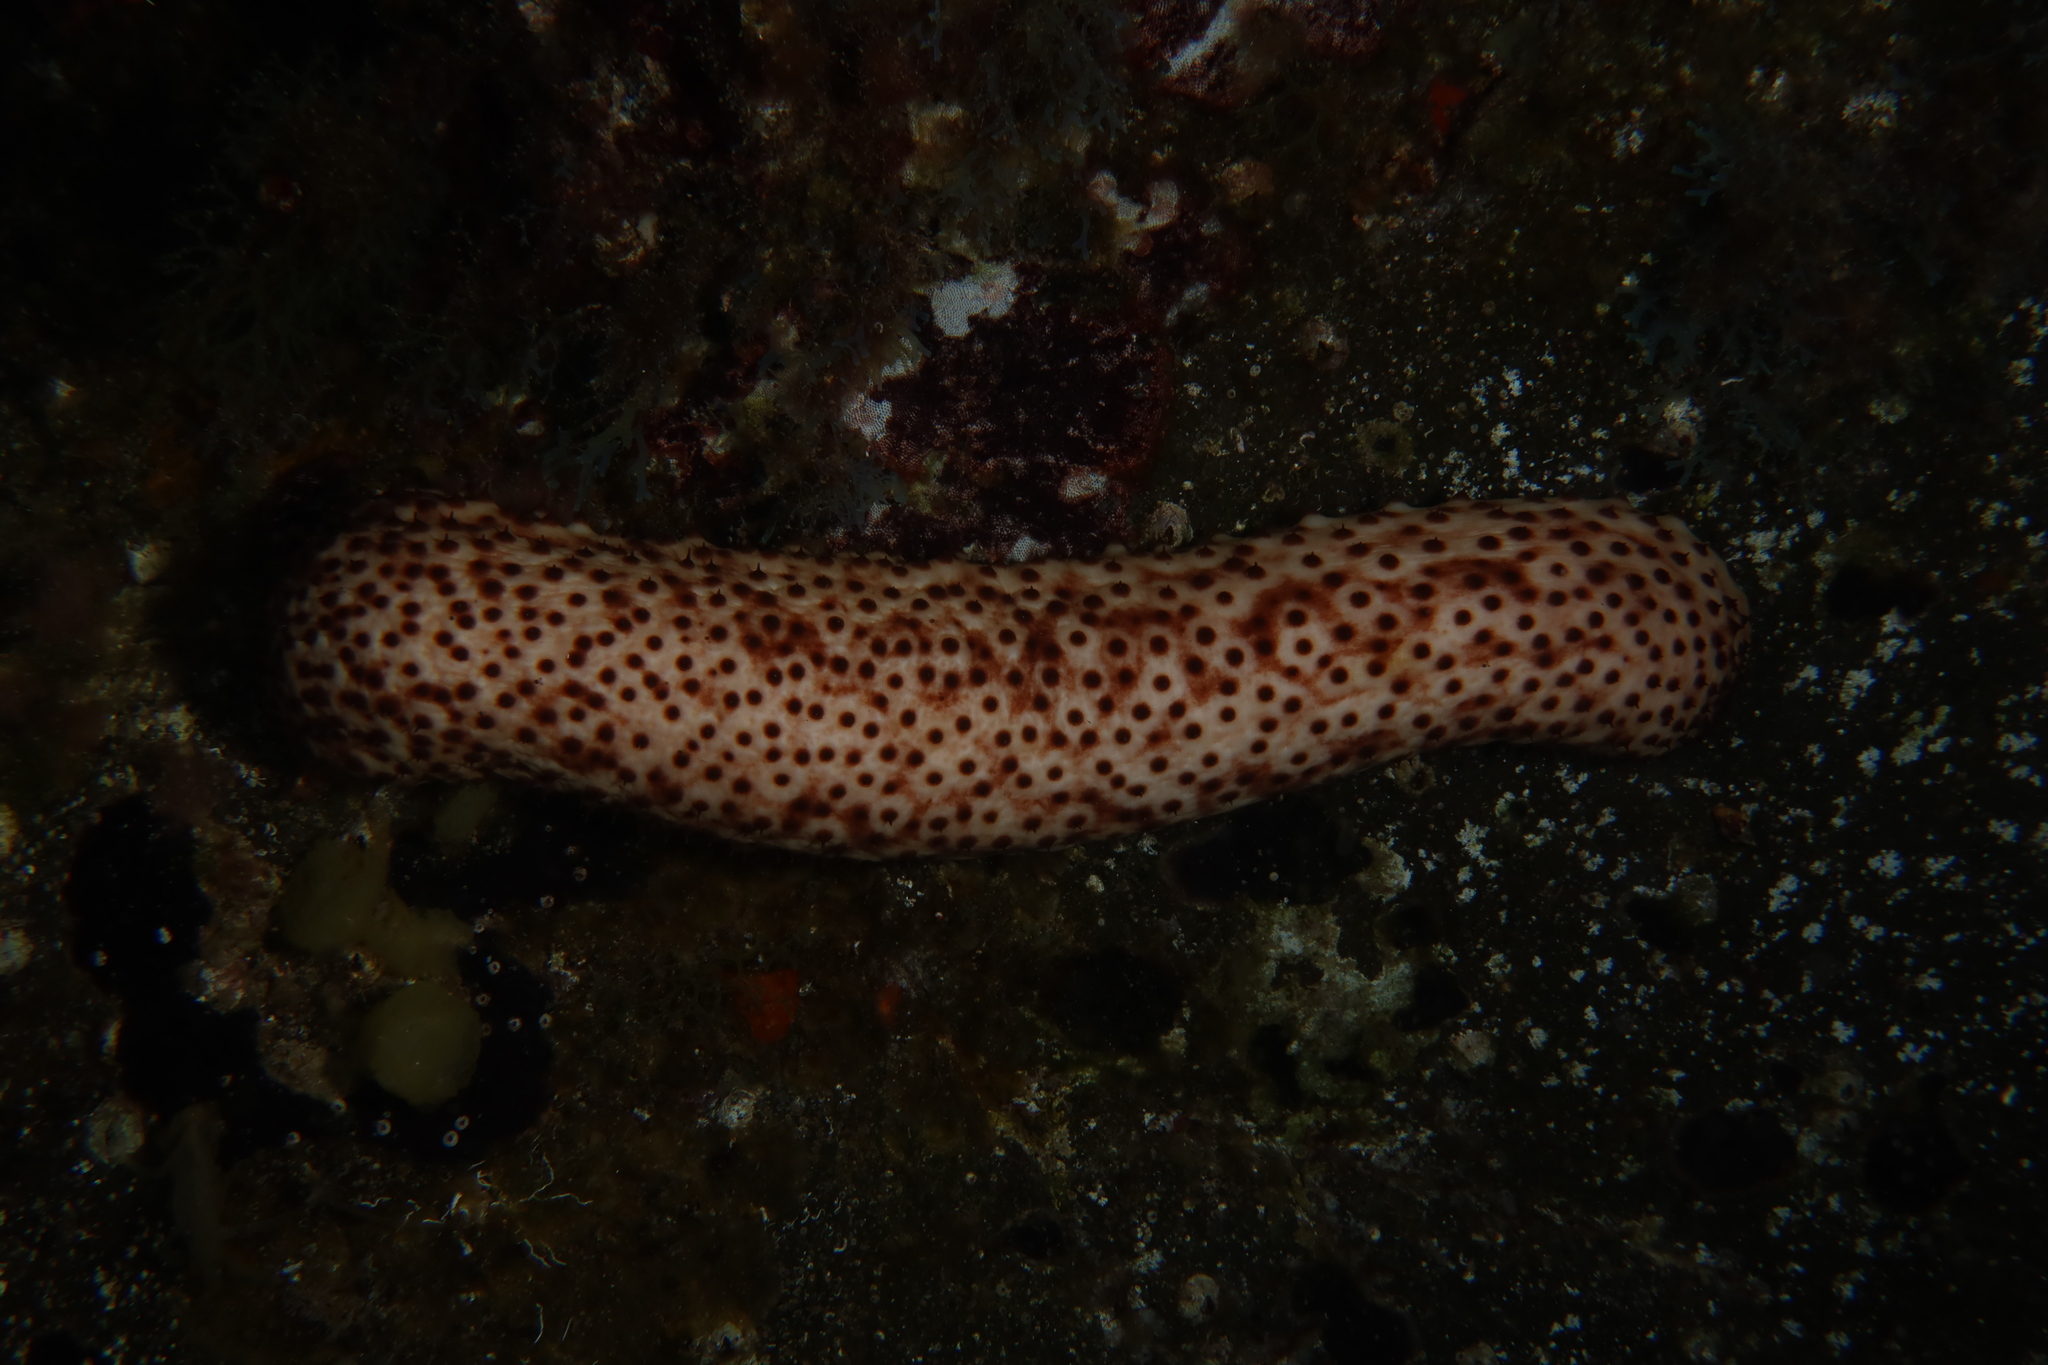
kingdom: Animalia
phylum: Echinodermata
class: Holothuroidea
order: Holothuriida
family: Holothuriidae
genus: Holothuria
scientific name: Holothuria sanctori
